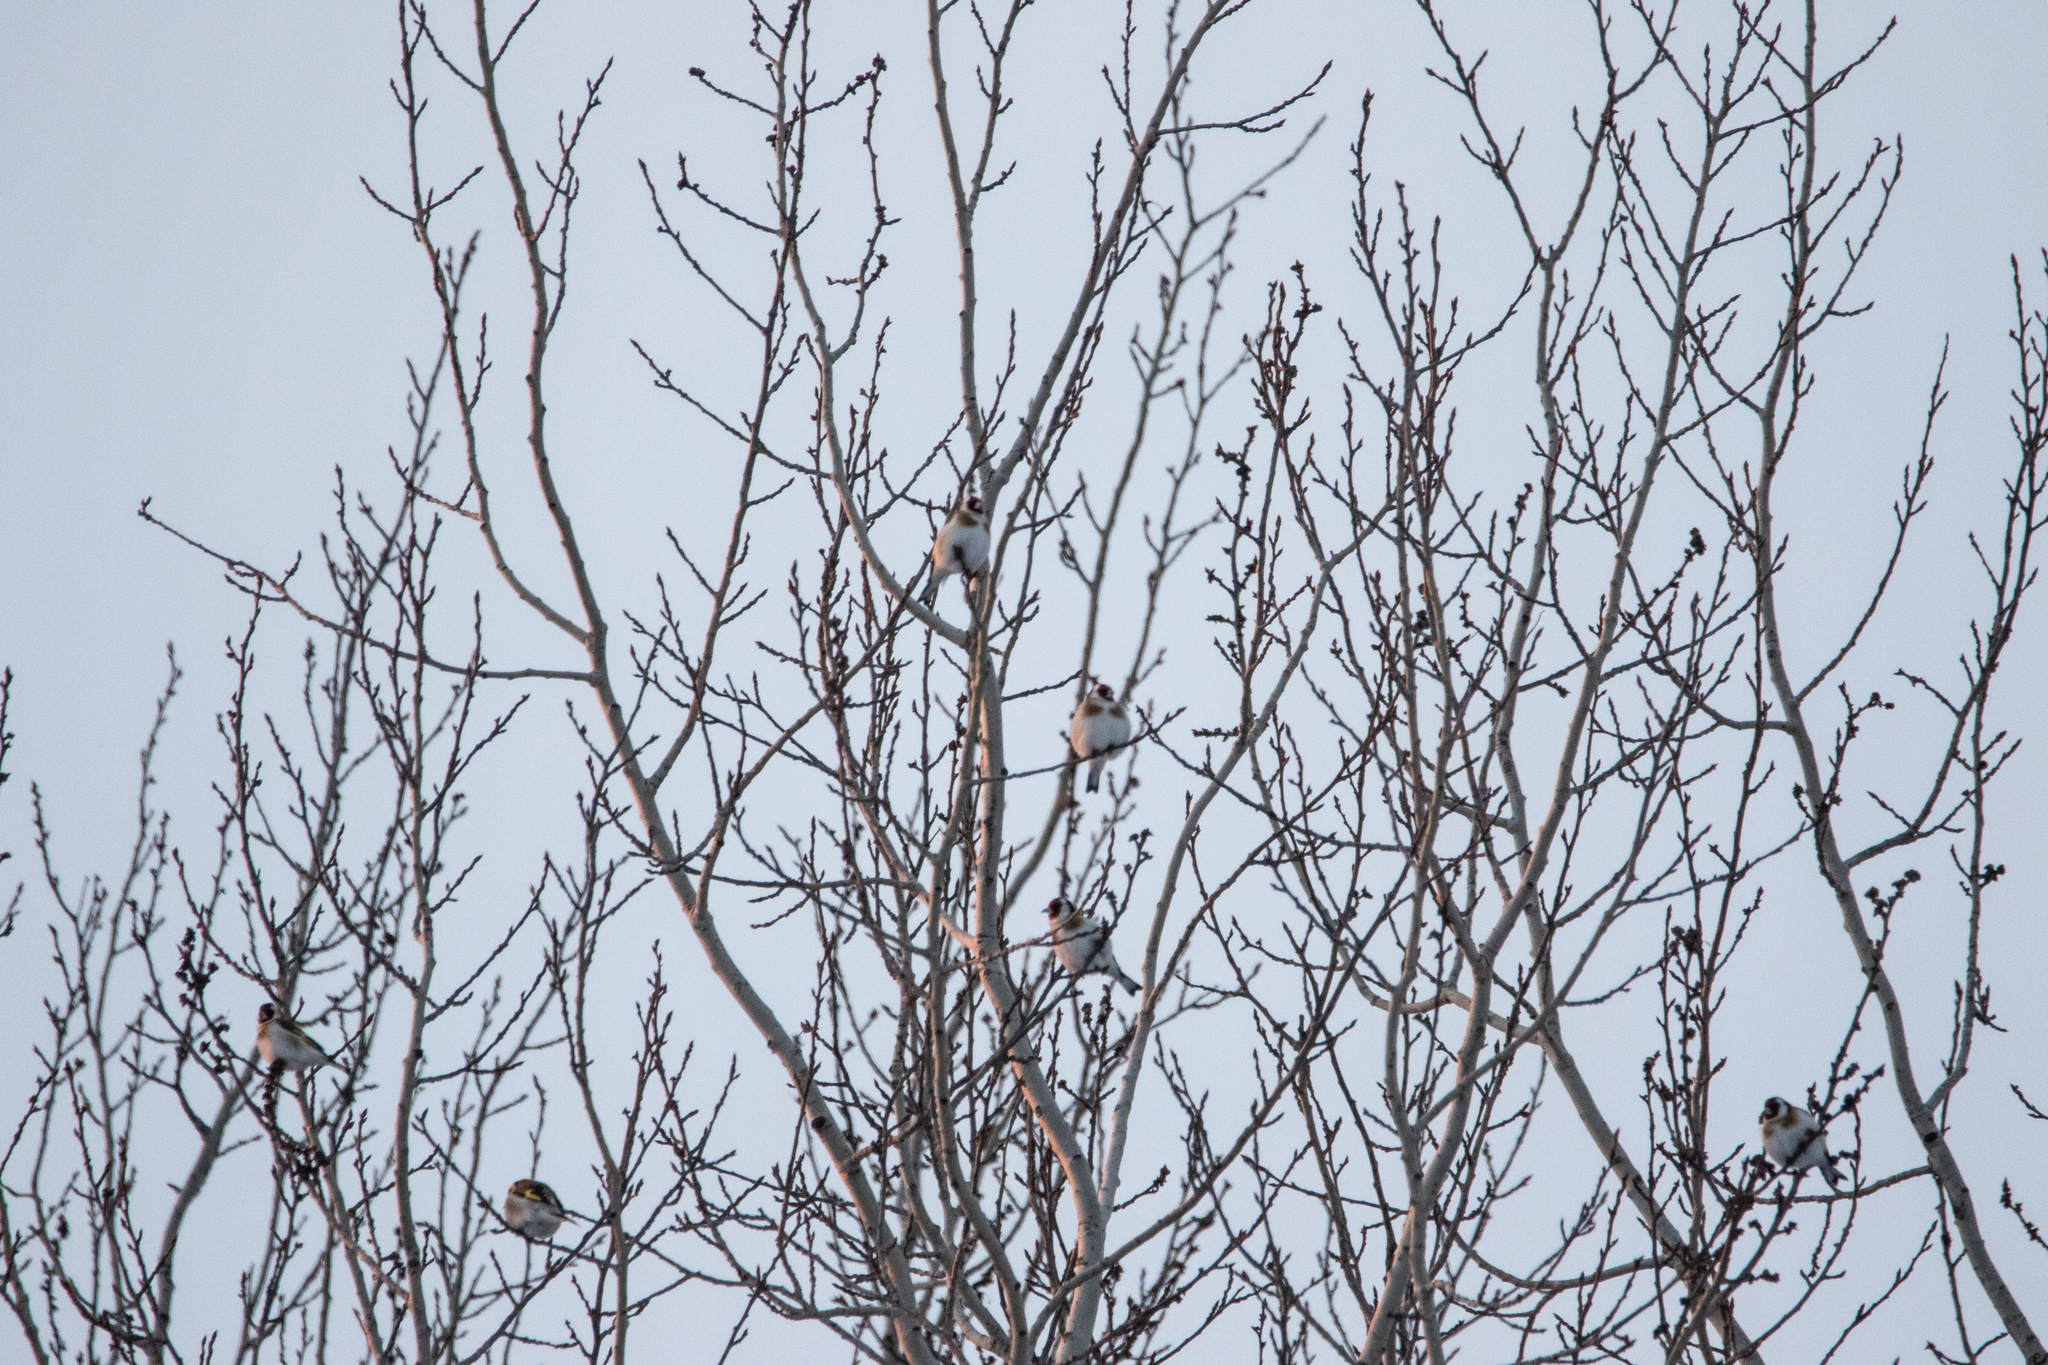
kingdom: Animalia
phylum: Chordata
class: Aves
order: Passeriformes
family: Fringillidae
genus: Carduelis
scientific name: Carduelis carduelis
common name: European goldfinch
